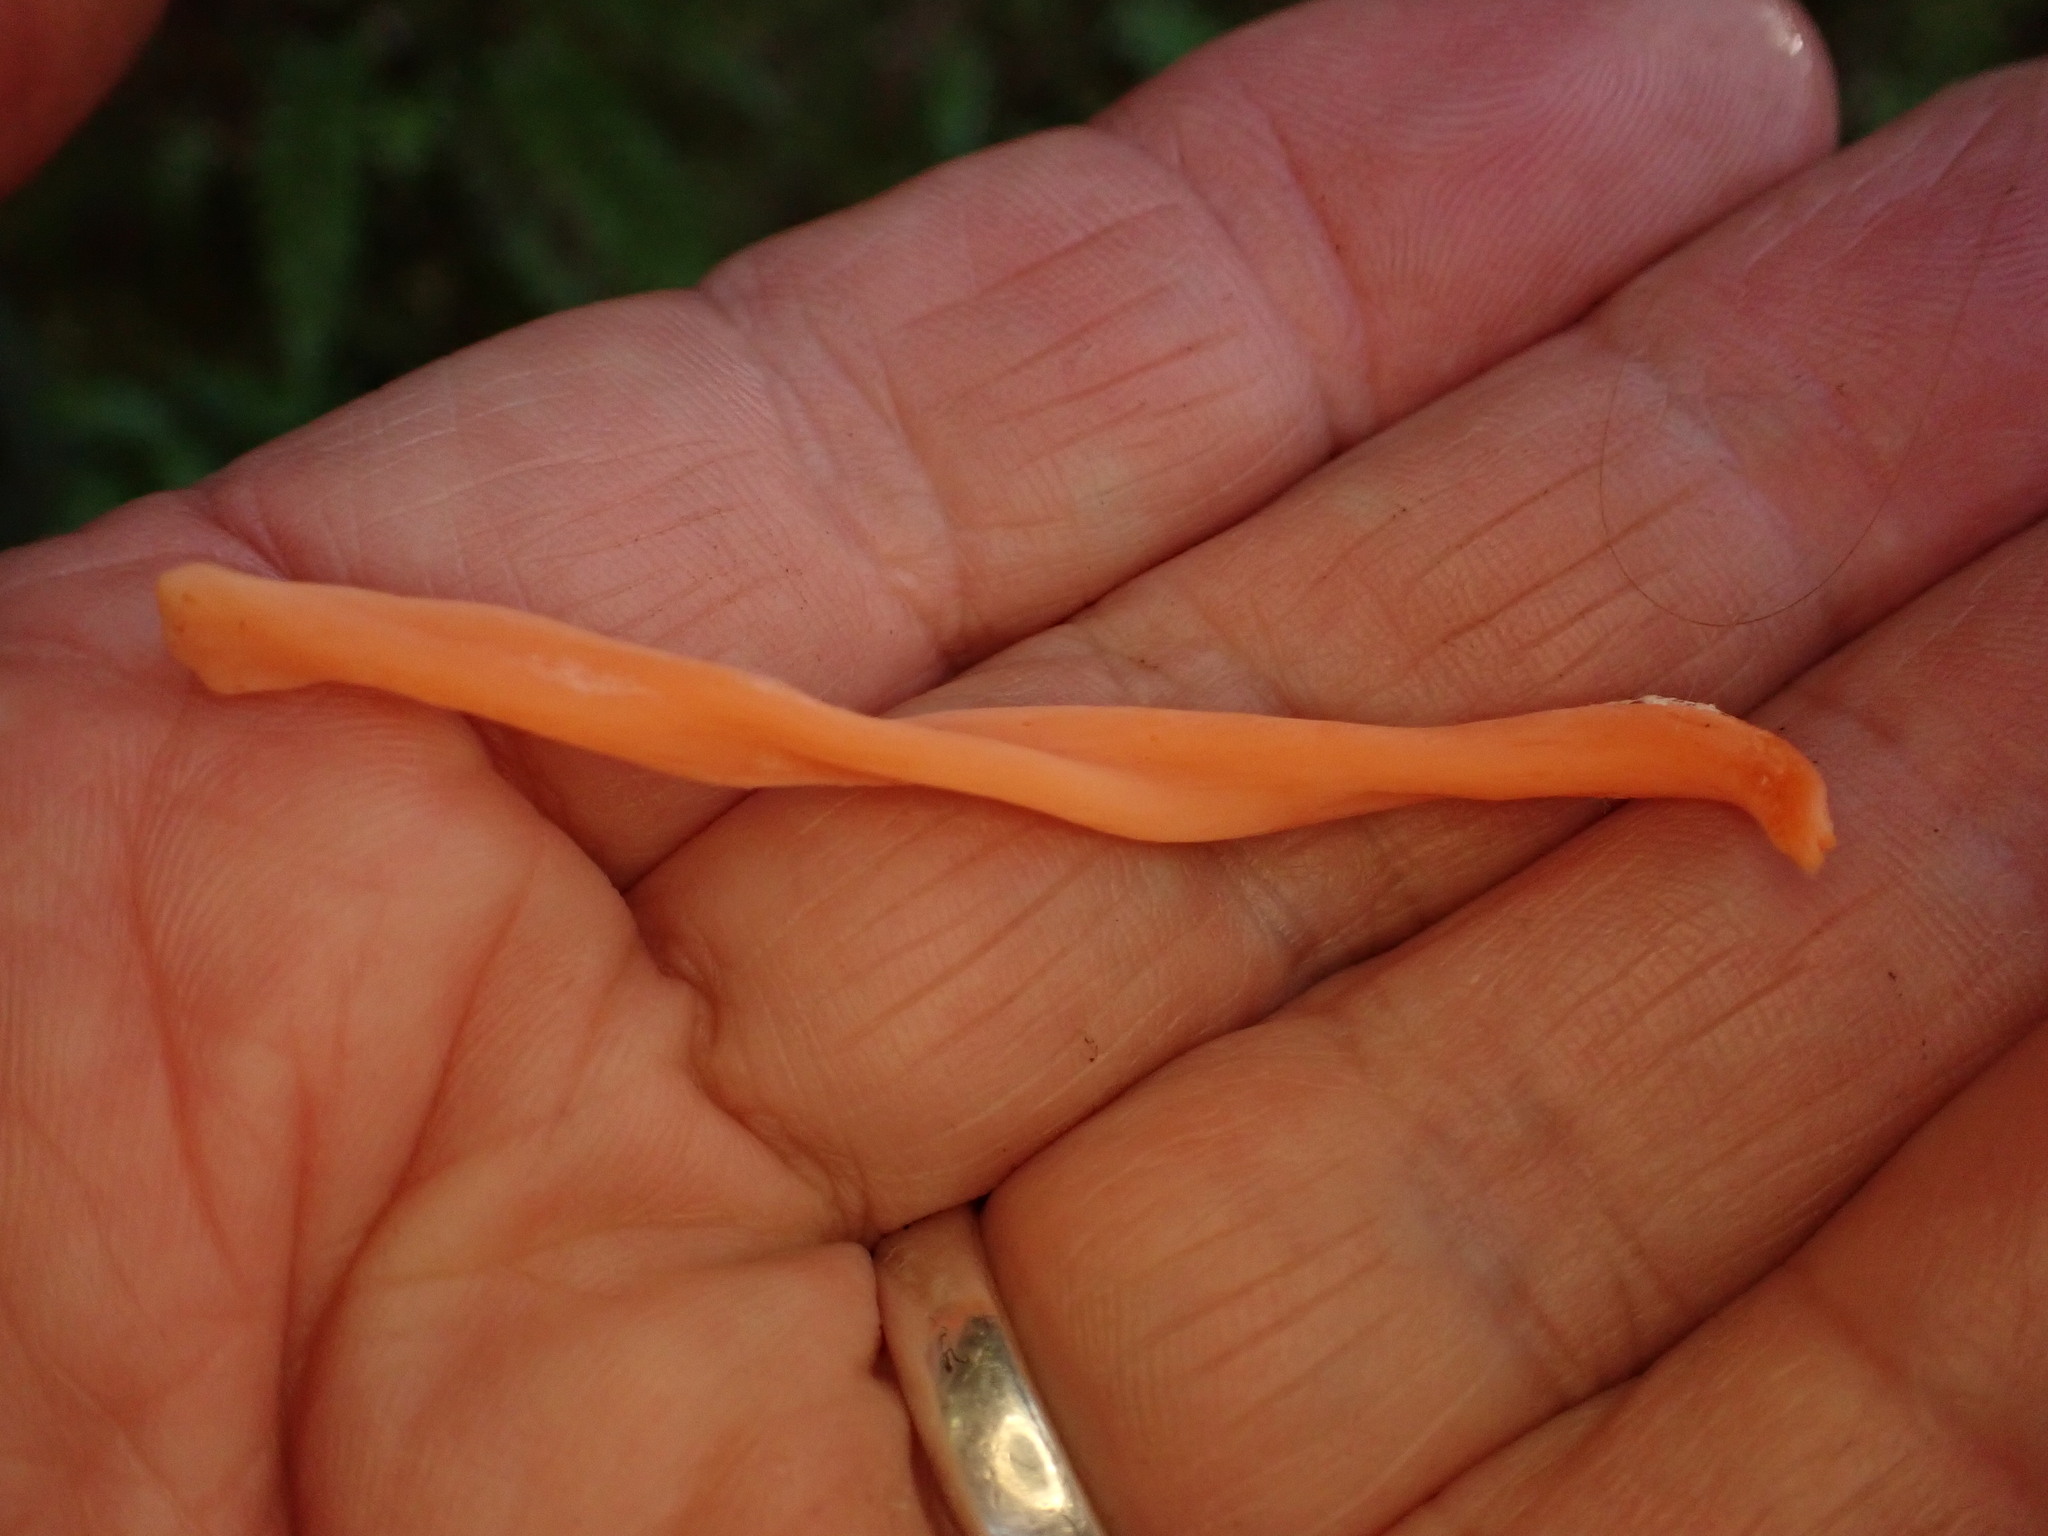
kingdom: Fungi
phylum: Basidiomycota
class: Agaricomycetes
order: Agaricales
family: Clavariaceae
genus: Clavulinopsis
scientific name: Clavulinopsis sulcata
